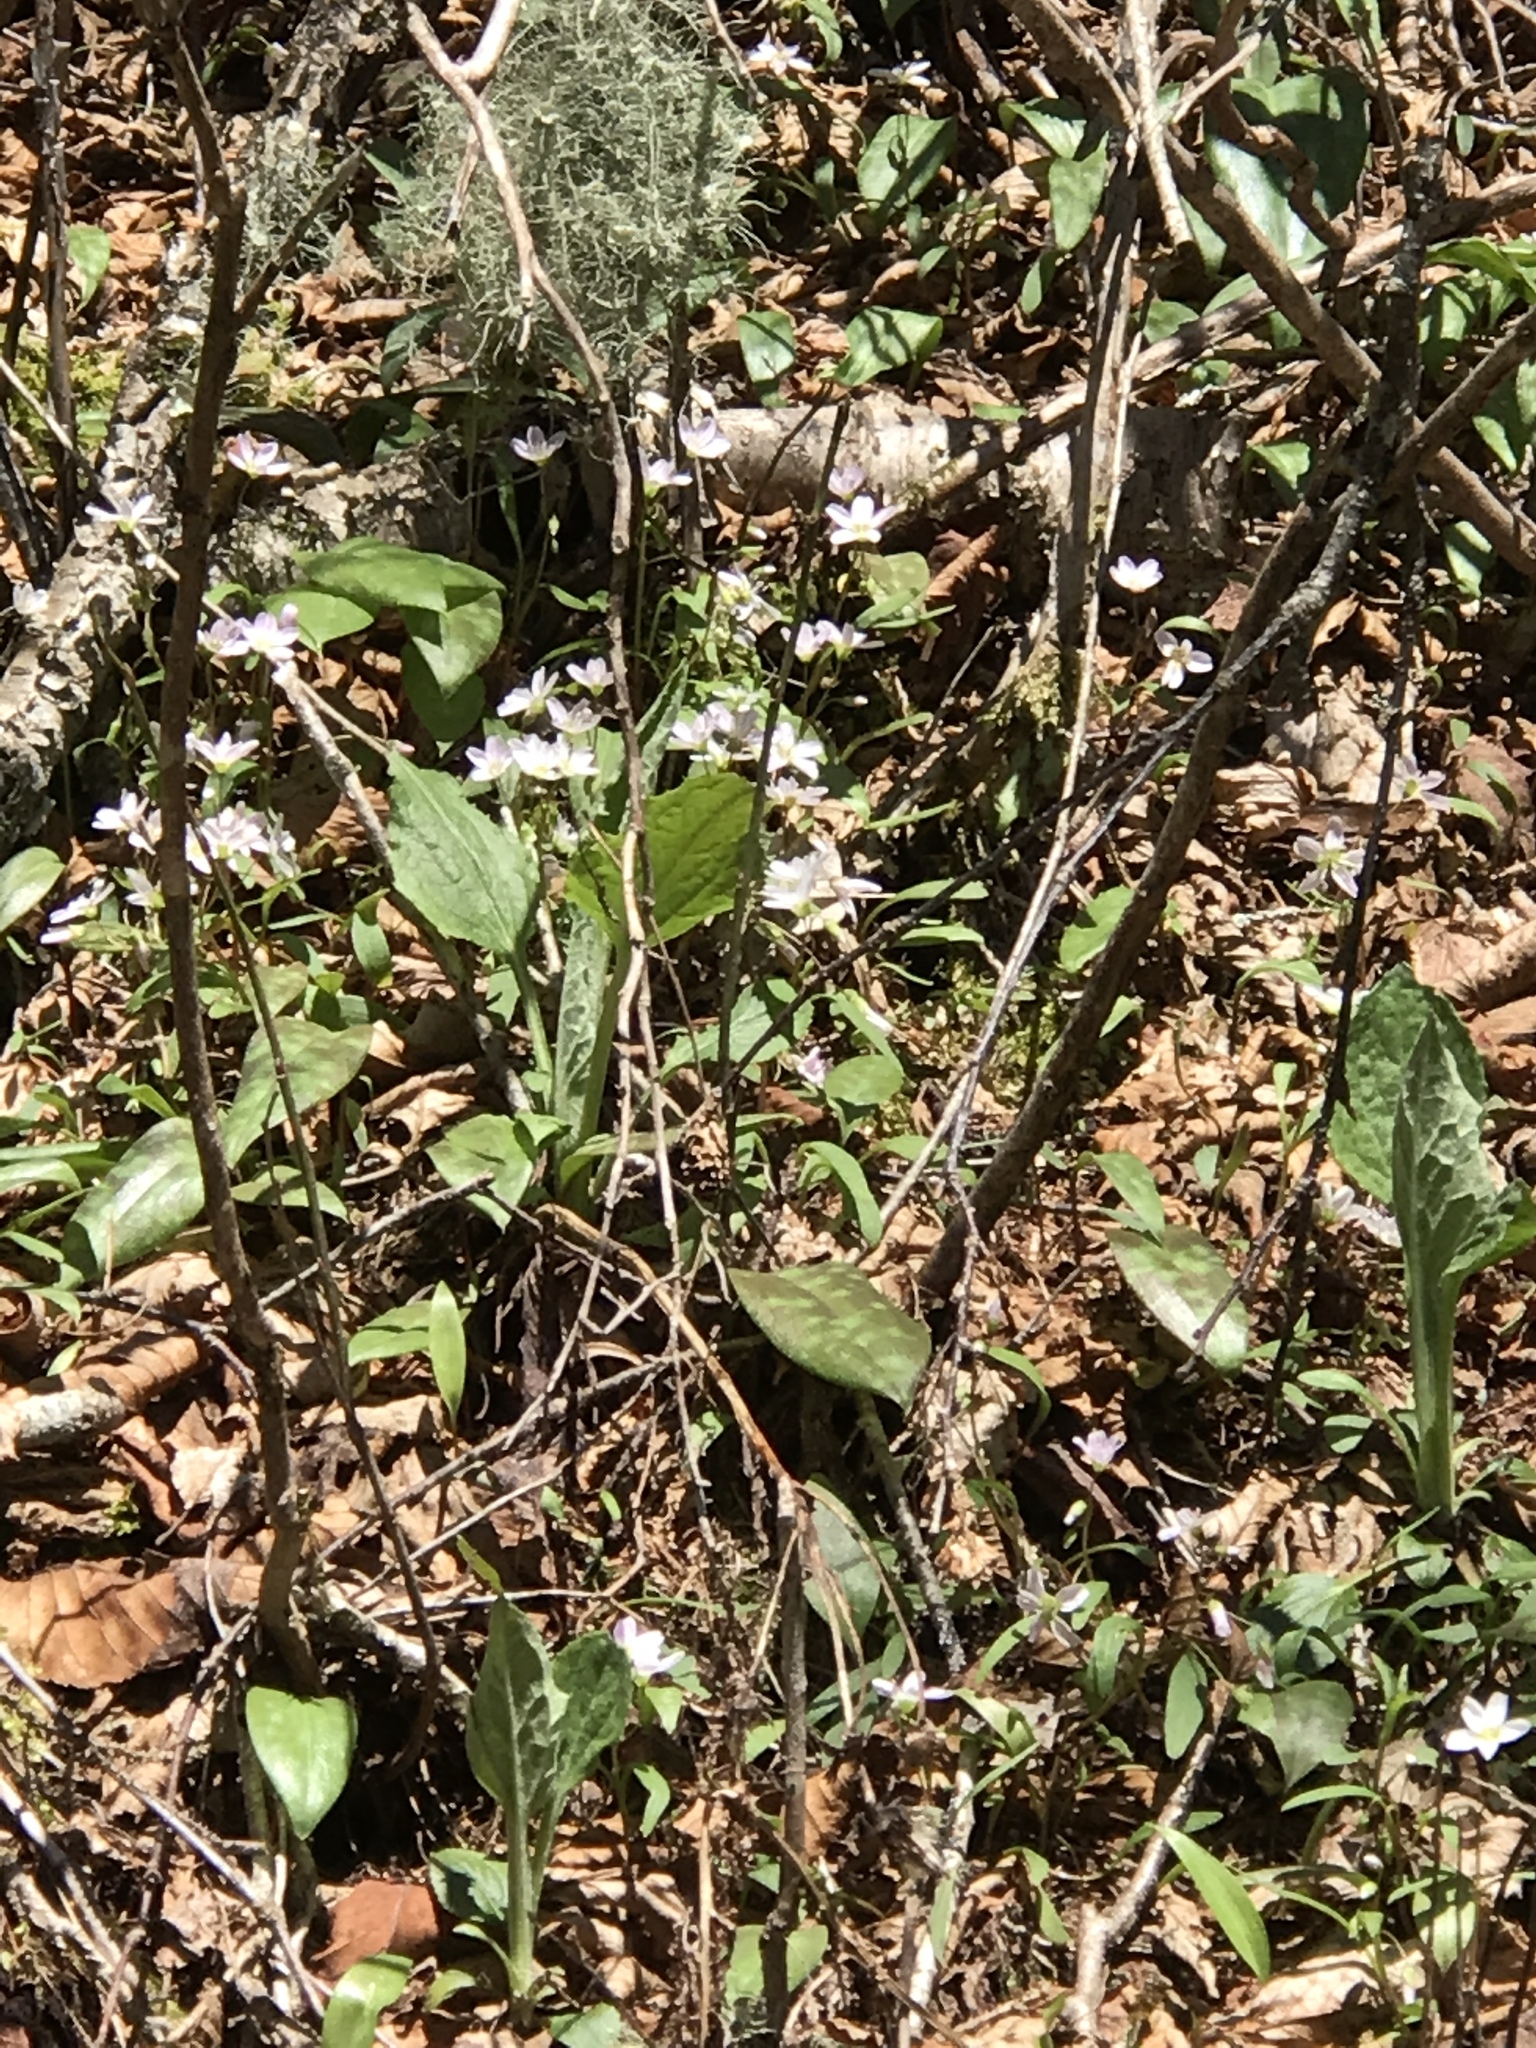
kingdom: Plantae
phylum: Tracheophyta
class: Magnoliopsida
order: Asterales
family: Asteraceae
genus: Rugelia
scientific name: Rugelia nudicaulis
